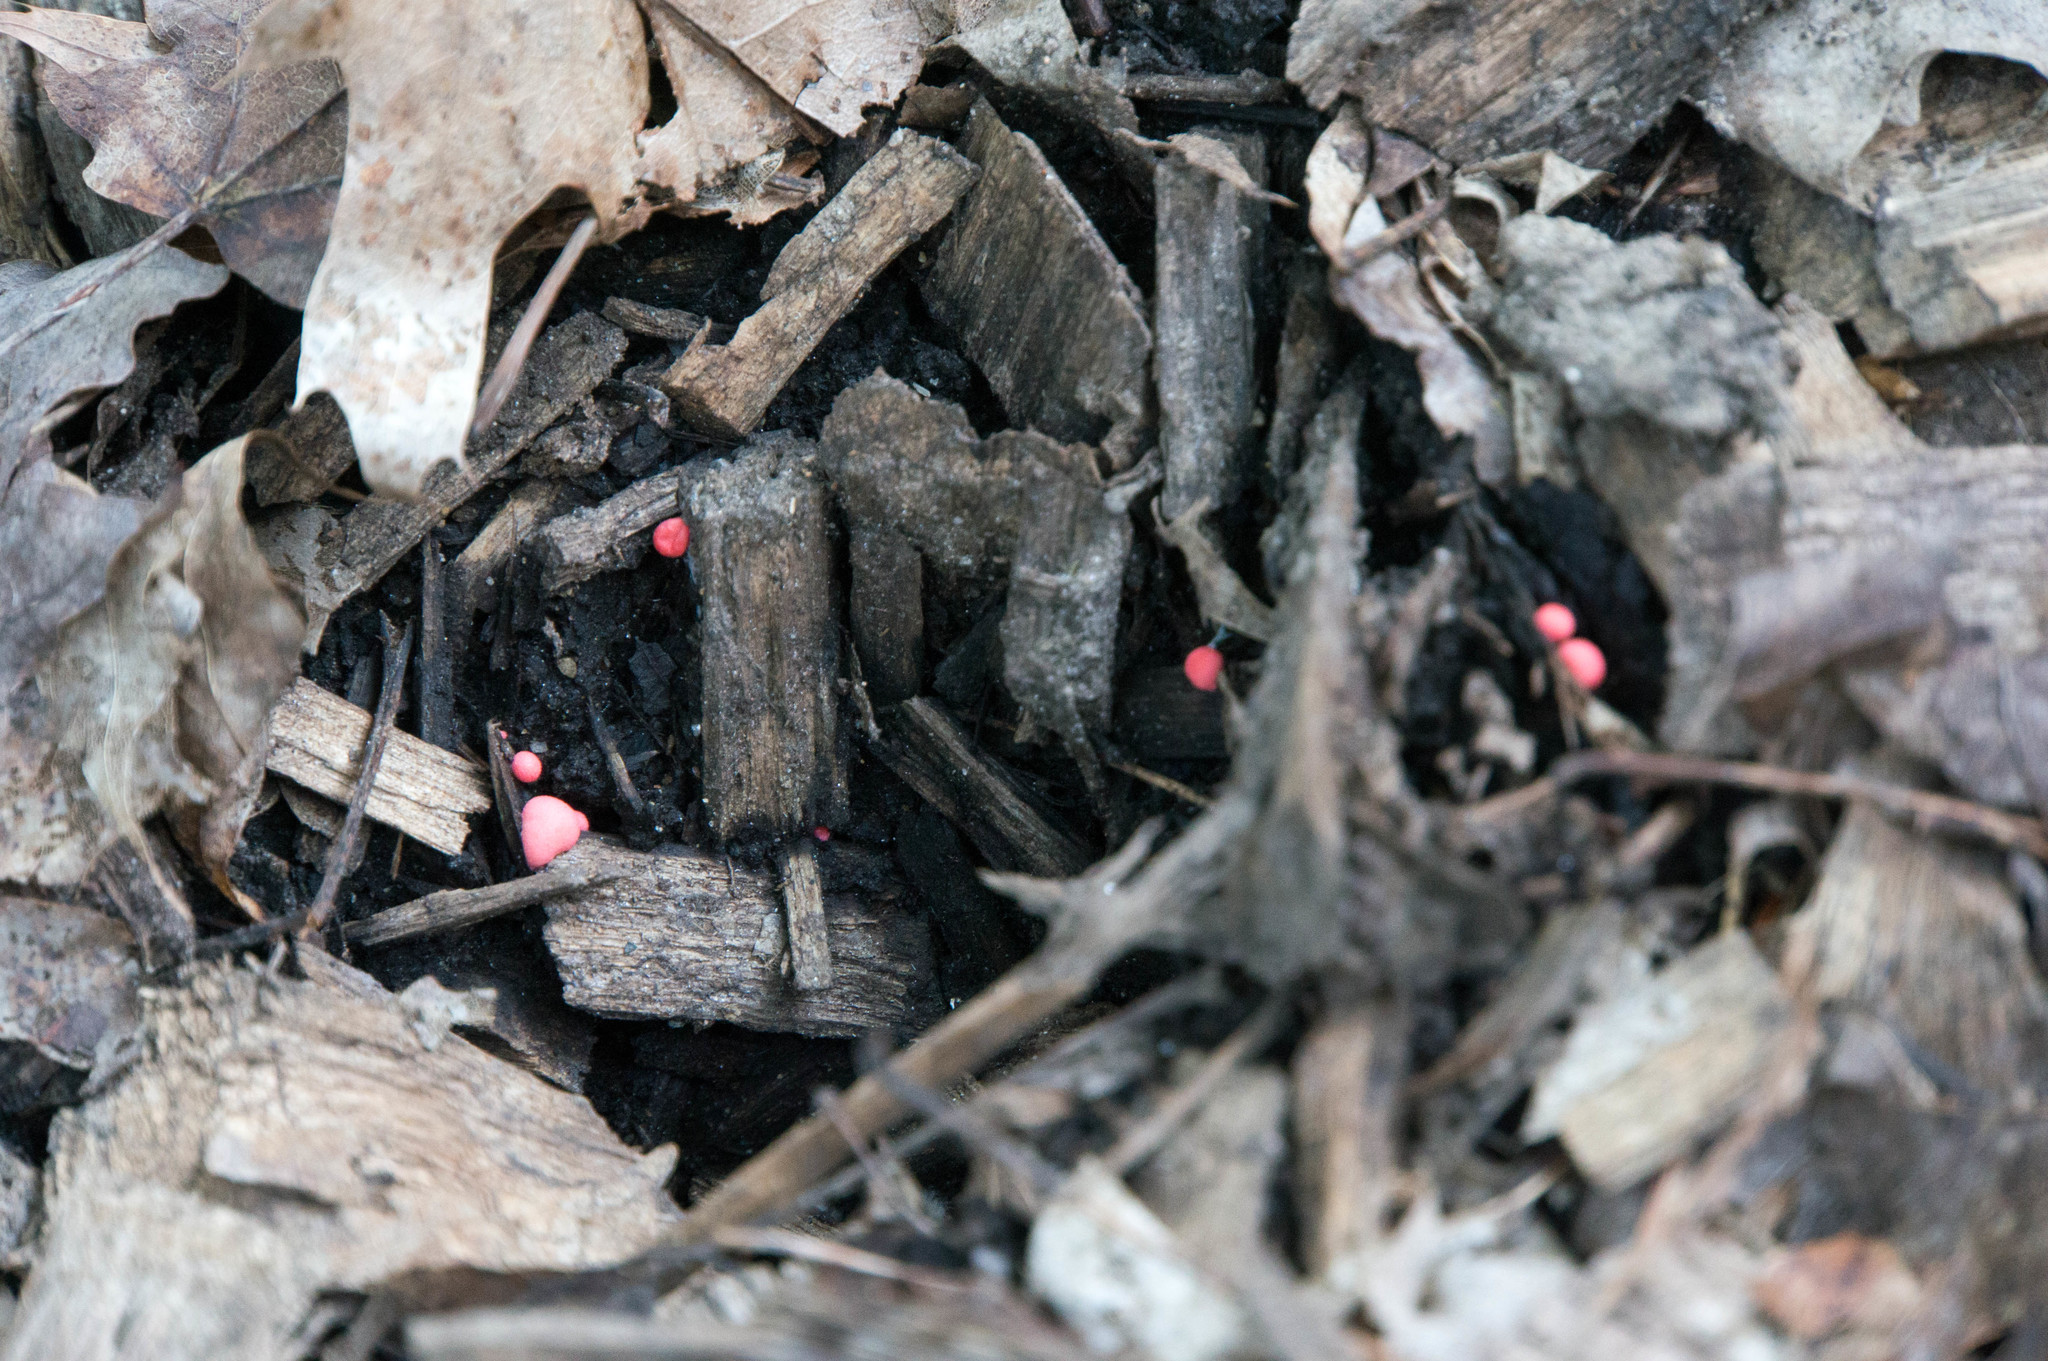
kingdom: Protozoa
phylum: Mycetozoa
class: Myxomycetes
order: Cribrariales
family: Tubiferaceae
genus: Lycogala
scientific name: Lycogala
